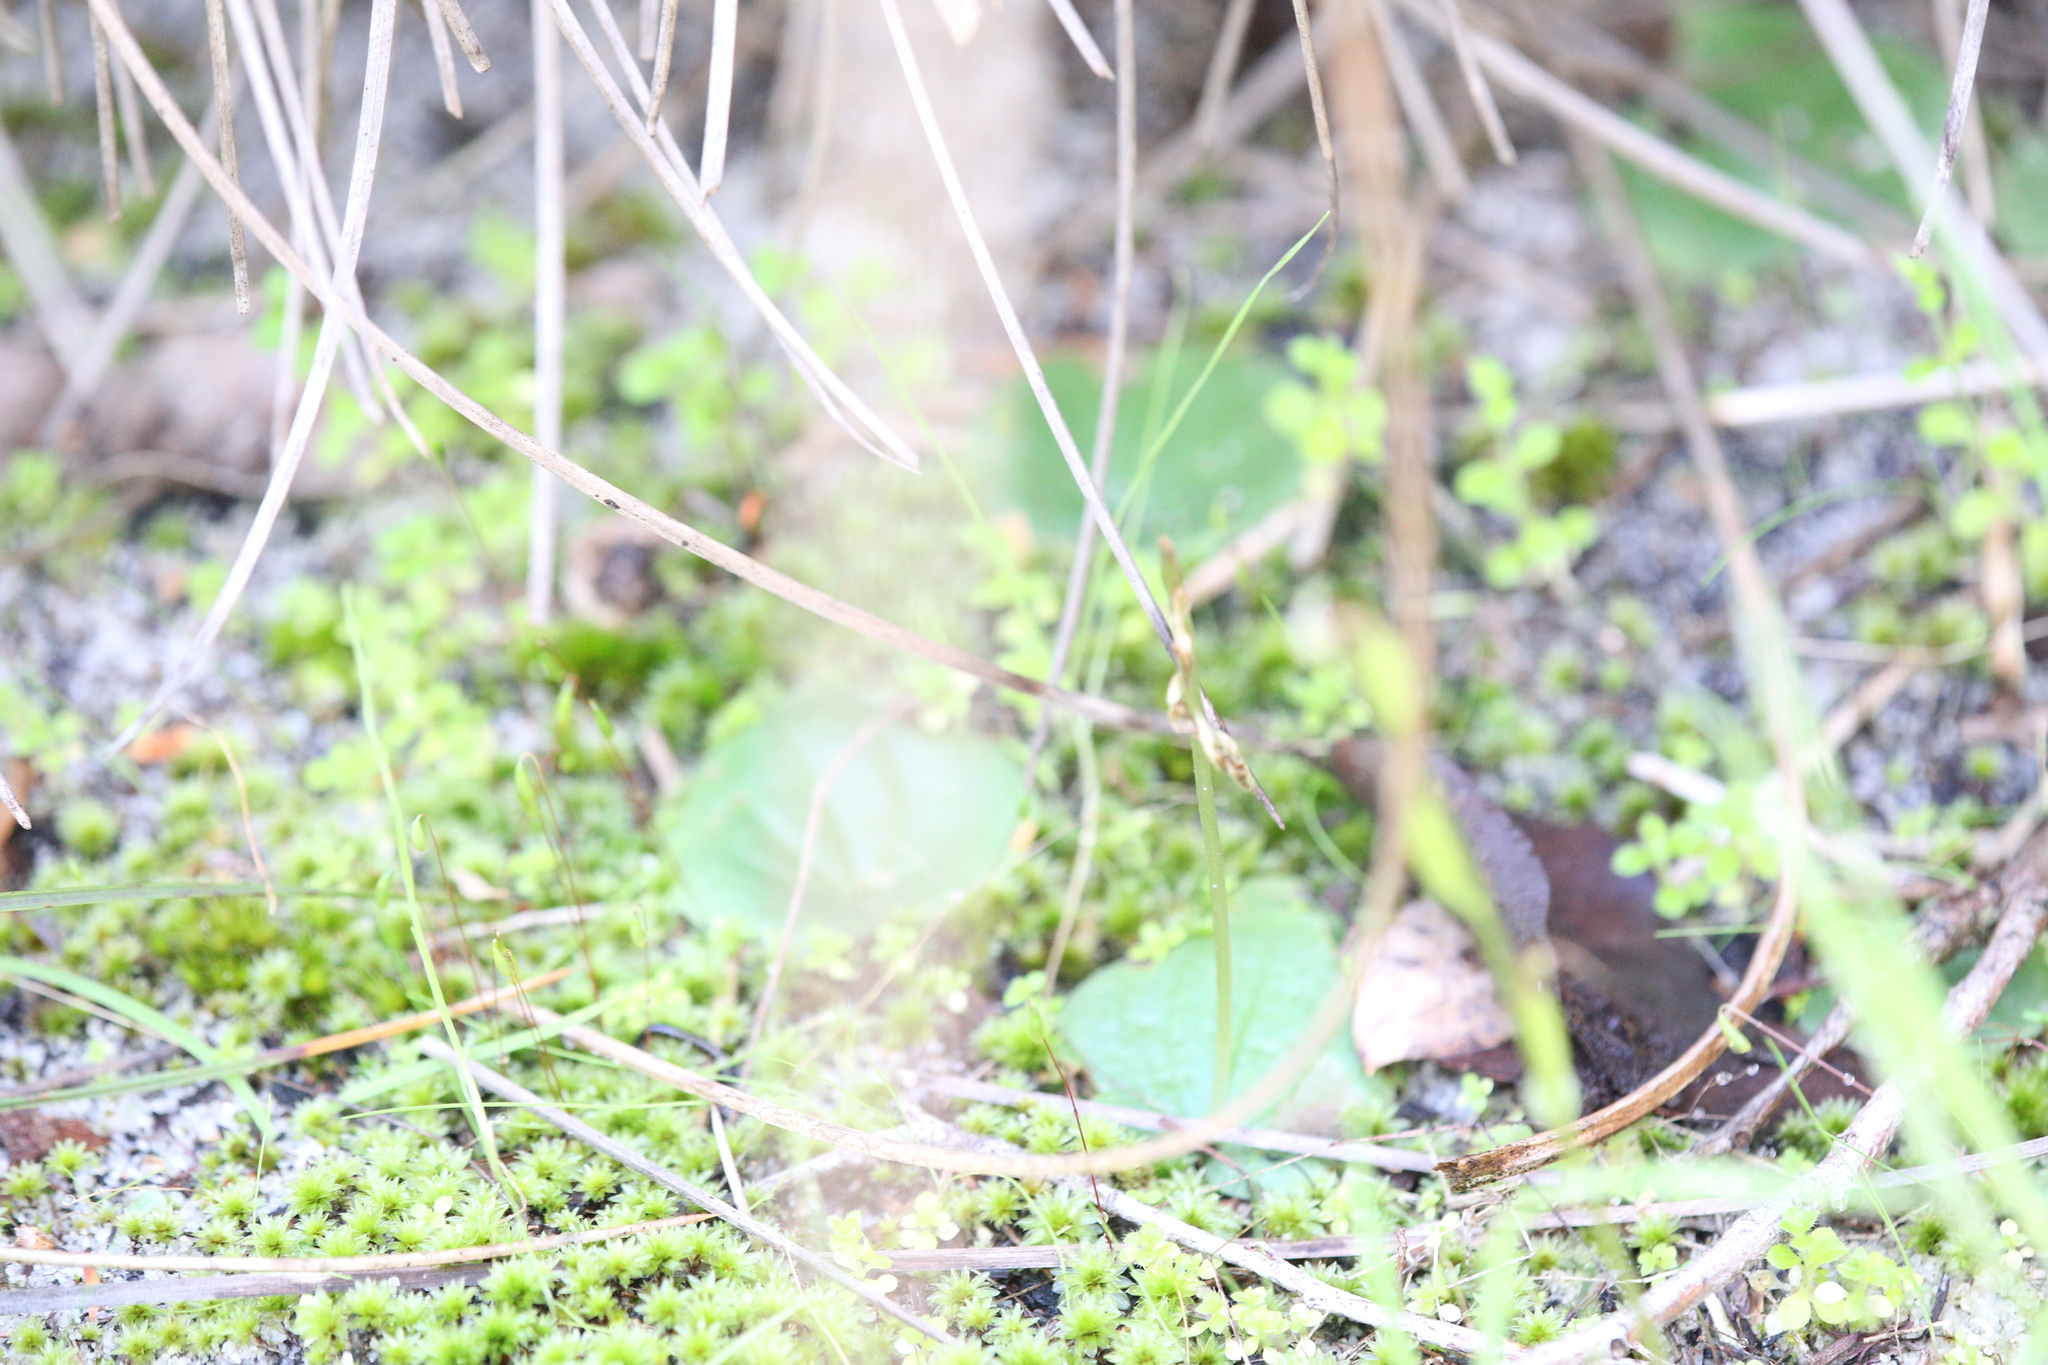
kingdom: Plantae
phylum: Tracheophyta
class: Liliopsida
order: Asparagales
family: Orchidaceae
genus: Cyrtostylis
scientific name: Cyrtostylis huegelii
